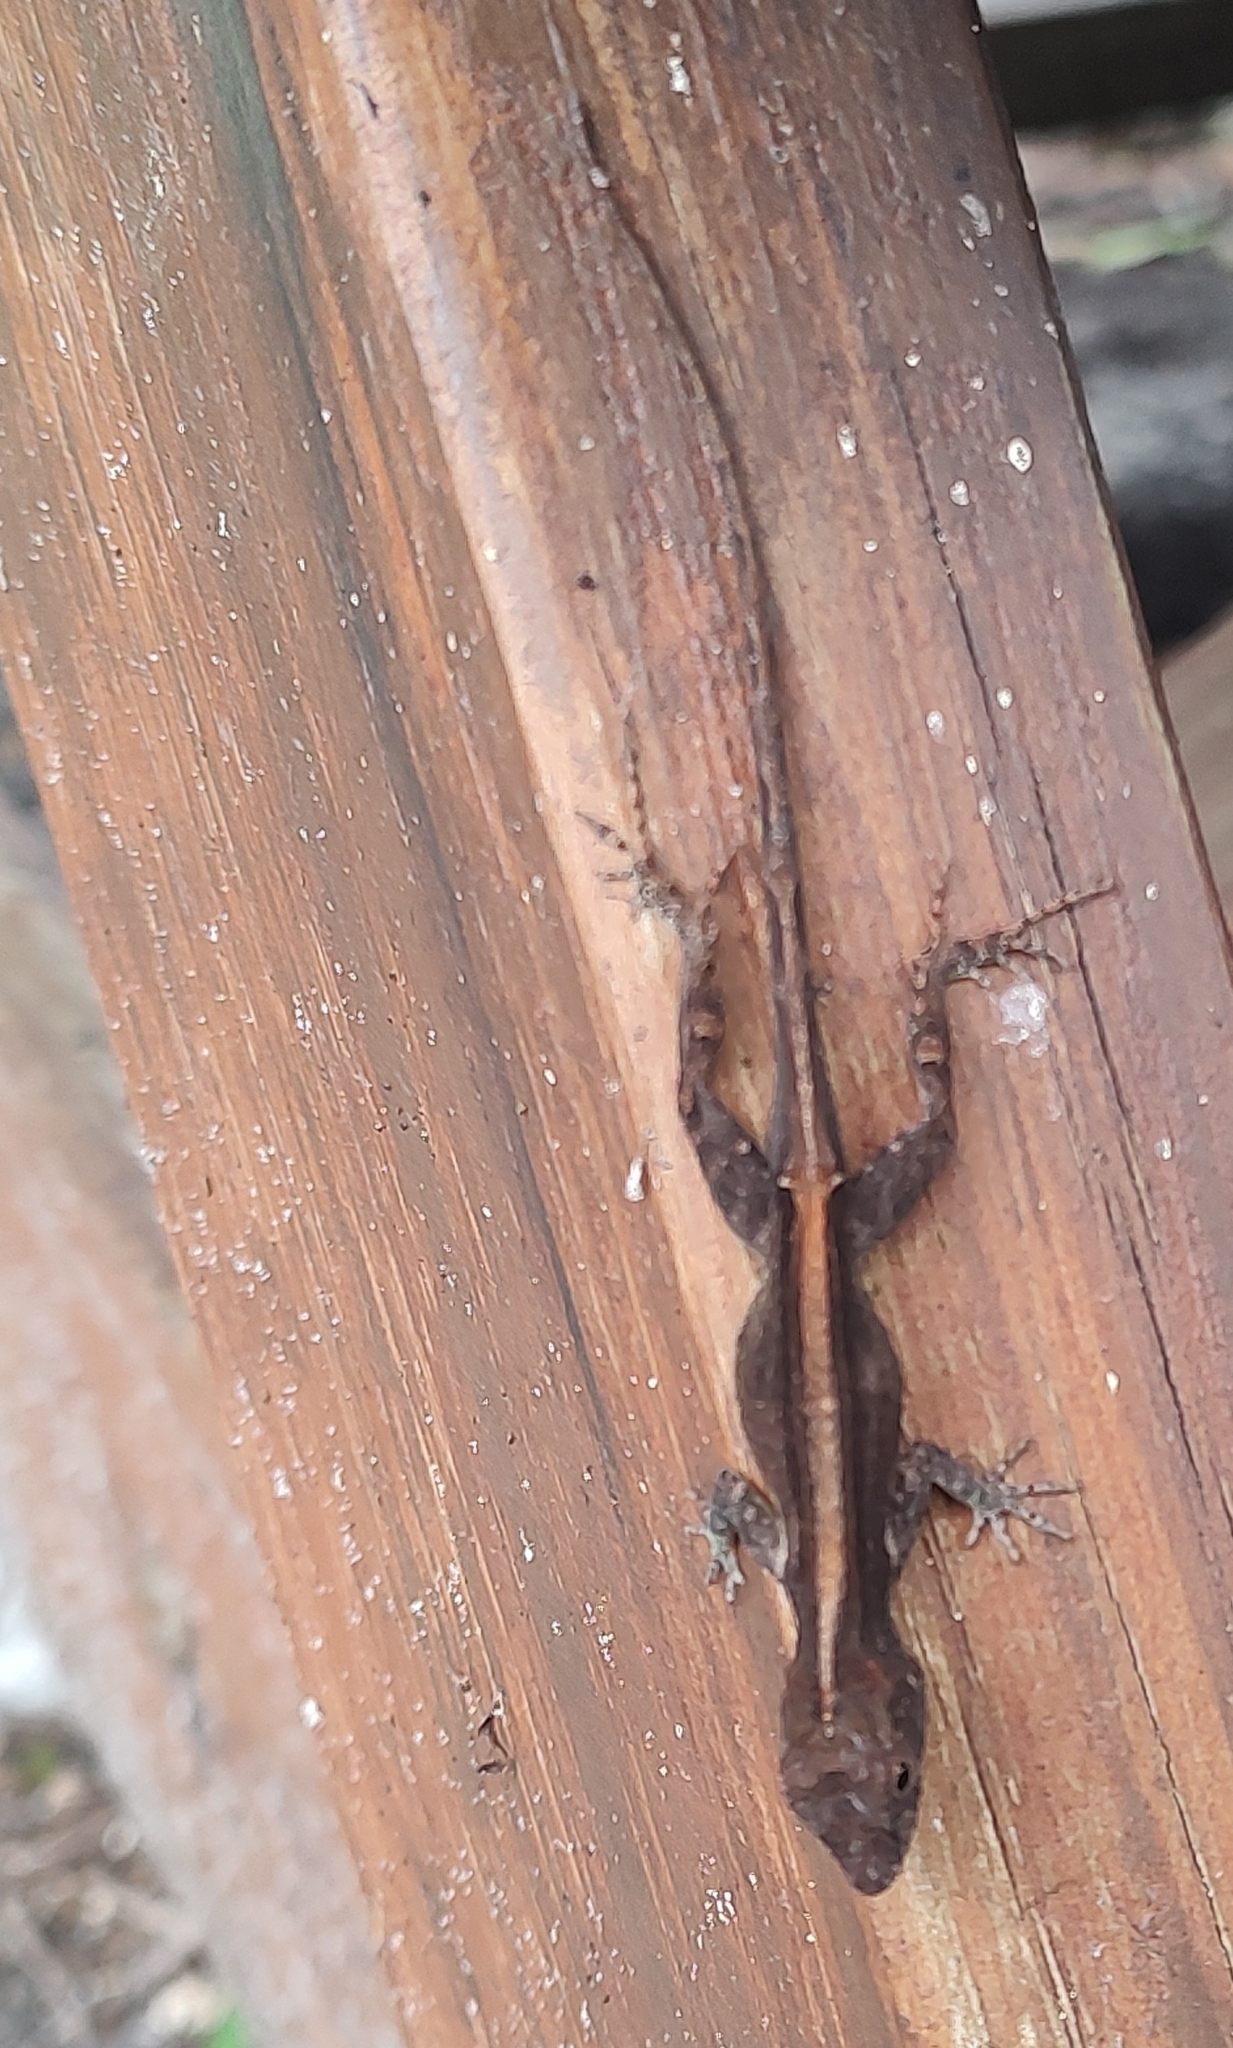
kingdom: Animalia
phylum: Chordata
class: Squamata
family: Dactyloidae
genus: Anolis
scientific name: Anolis cristatellus
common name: Crested anole
